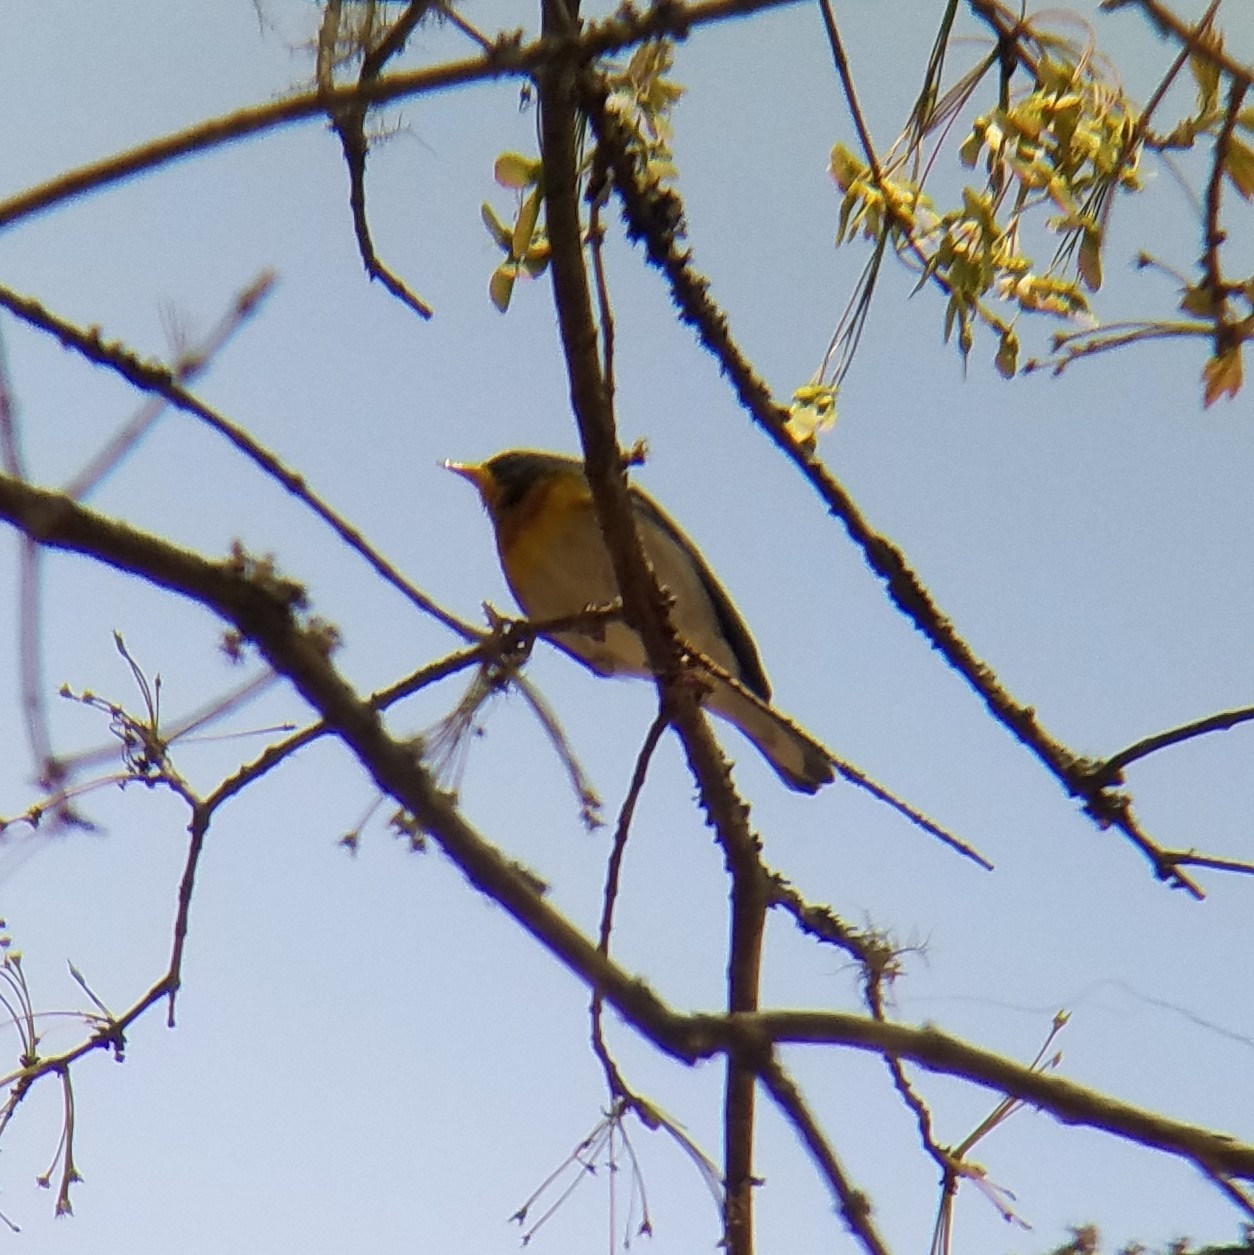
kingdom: Animalia
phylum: Chordata
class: Aves
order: Passeriformes
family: Parulidae
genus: Setophaga
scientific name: Setophaga americana
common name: Northern parula
